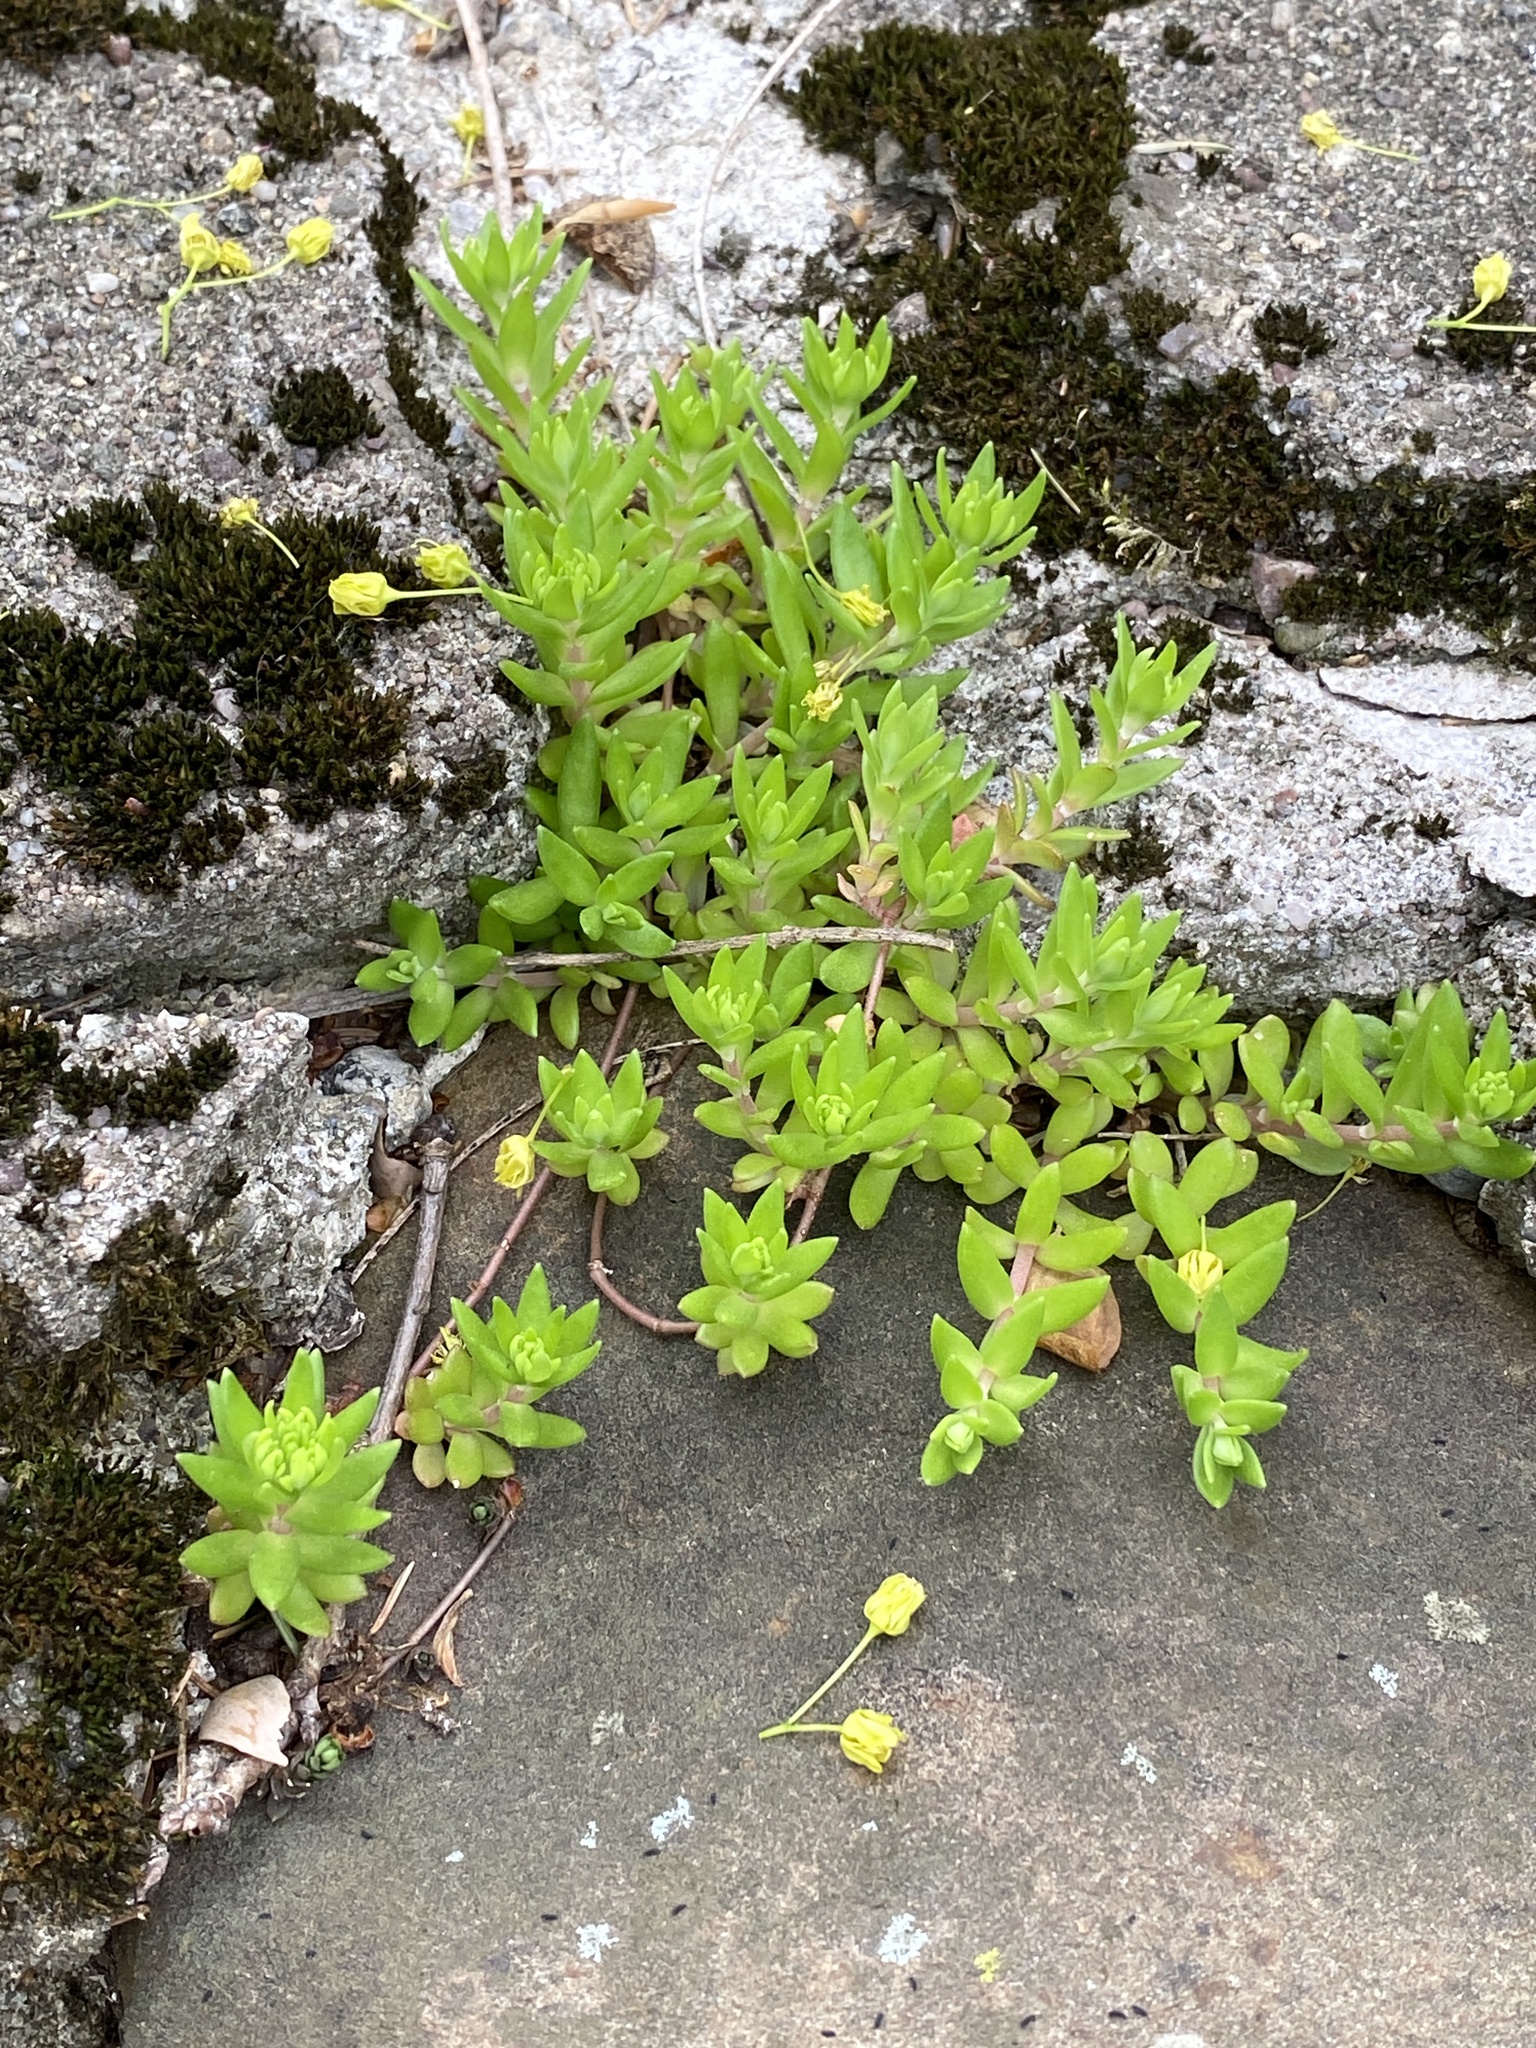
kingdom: Plantae
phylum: Tracheophyta
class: Magnoliopsida
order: Saxifragales
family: Crassulaceae
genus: Sedum
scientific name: Sedum sarmentosum
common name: Stringy stonecrop
